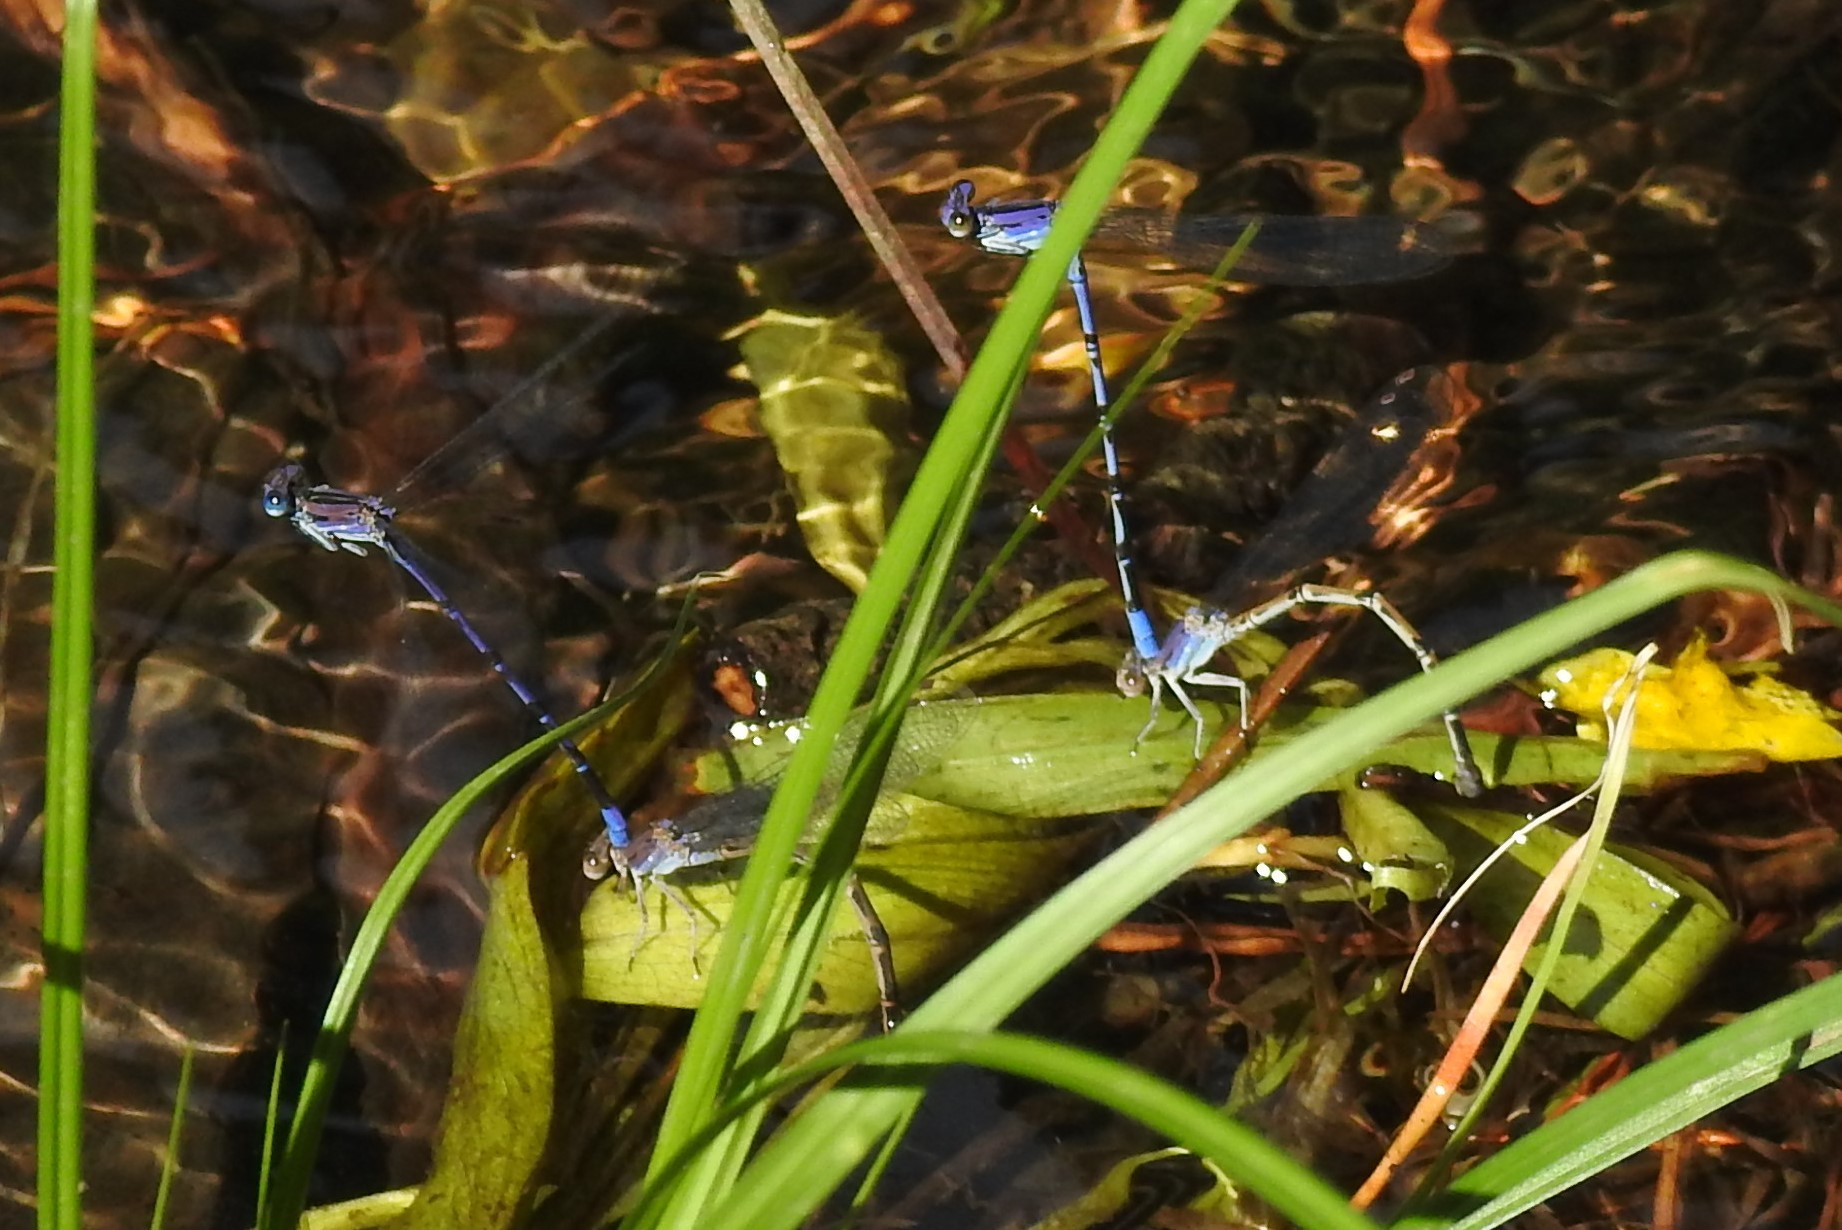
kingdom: Animalia
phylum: Arthropoda
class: Insecta
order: Odonata
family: Coenagrionidae
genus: Argia
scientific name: Argia funebris
